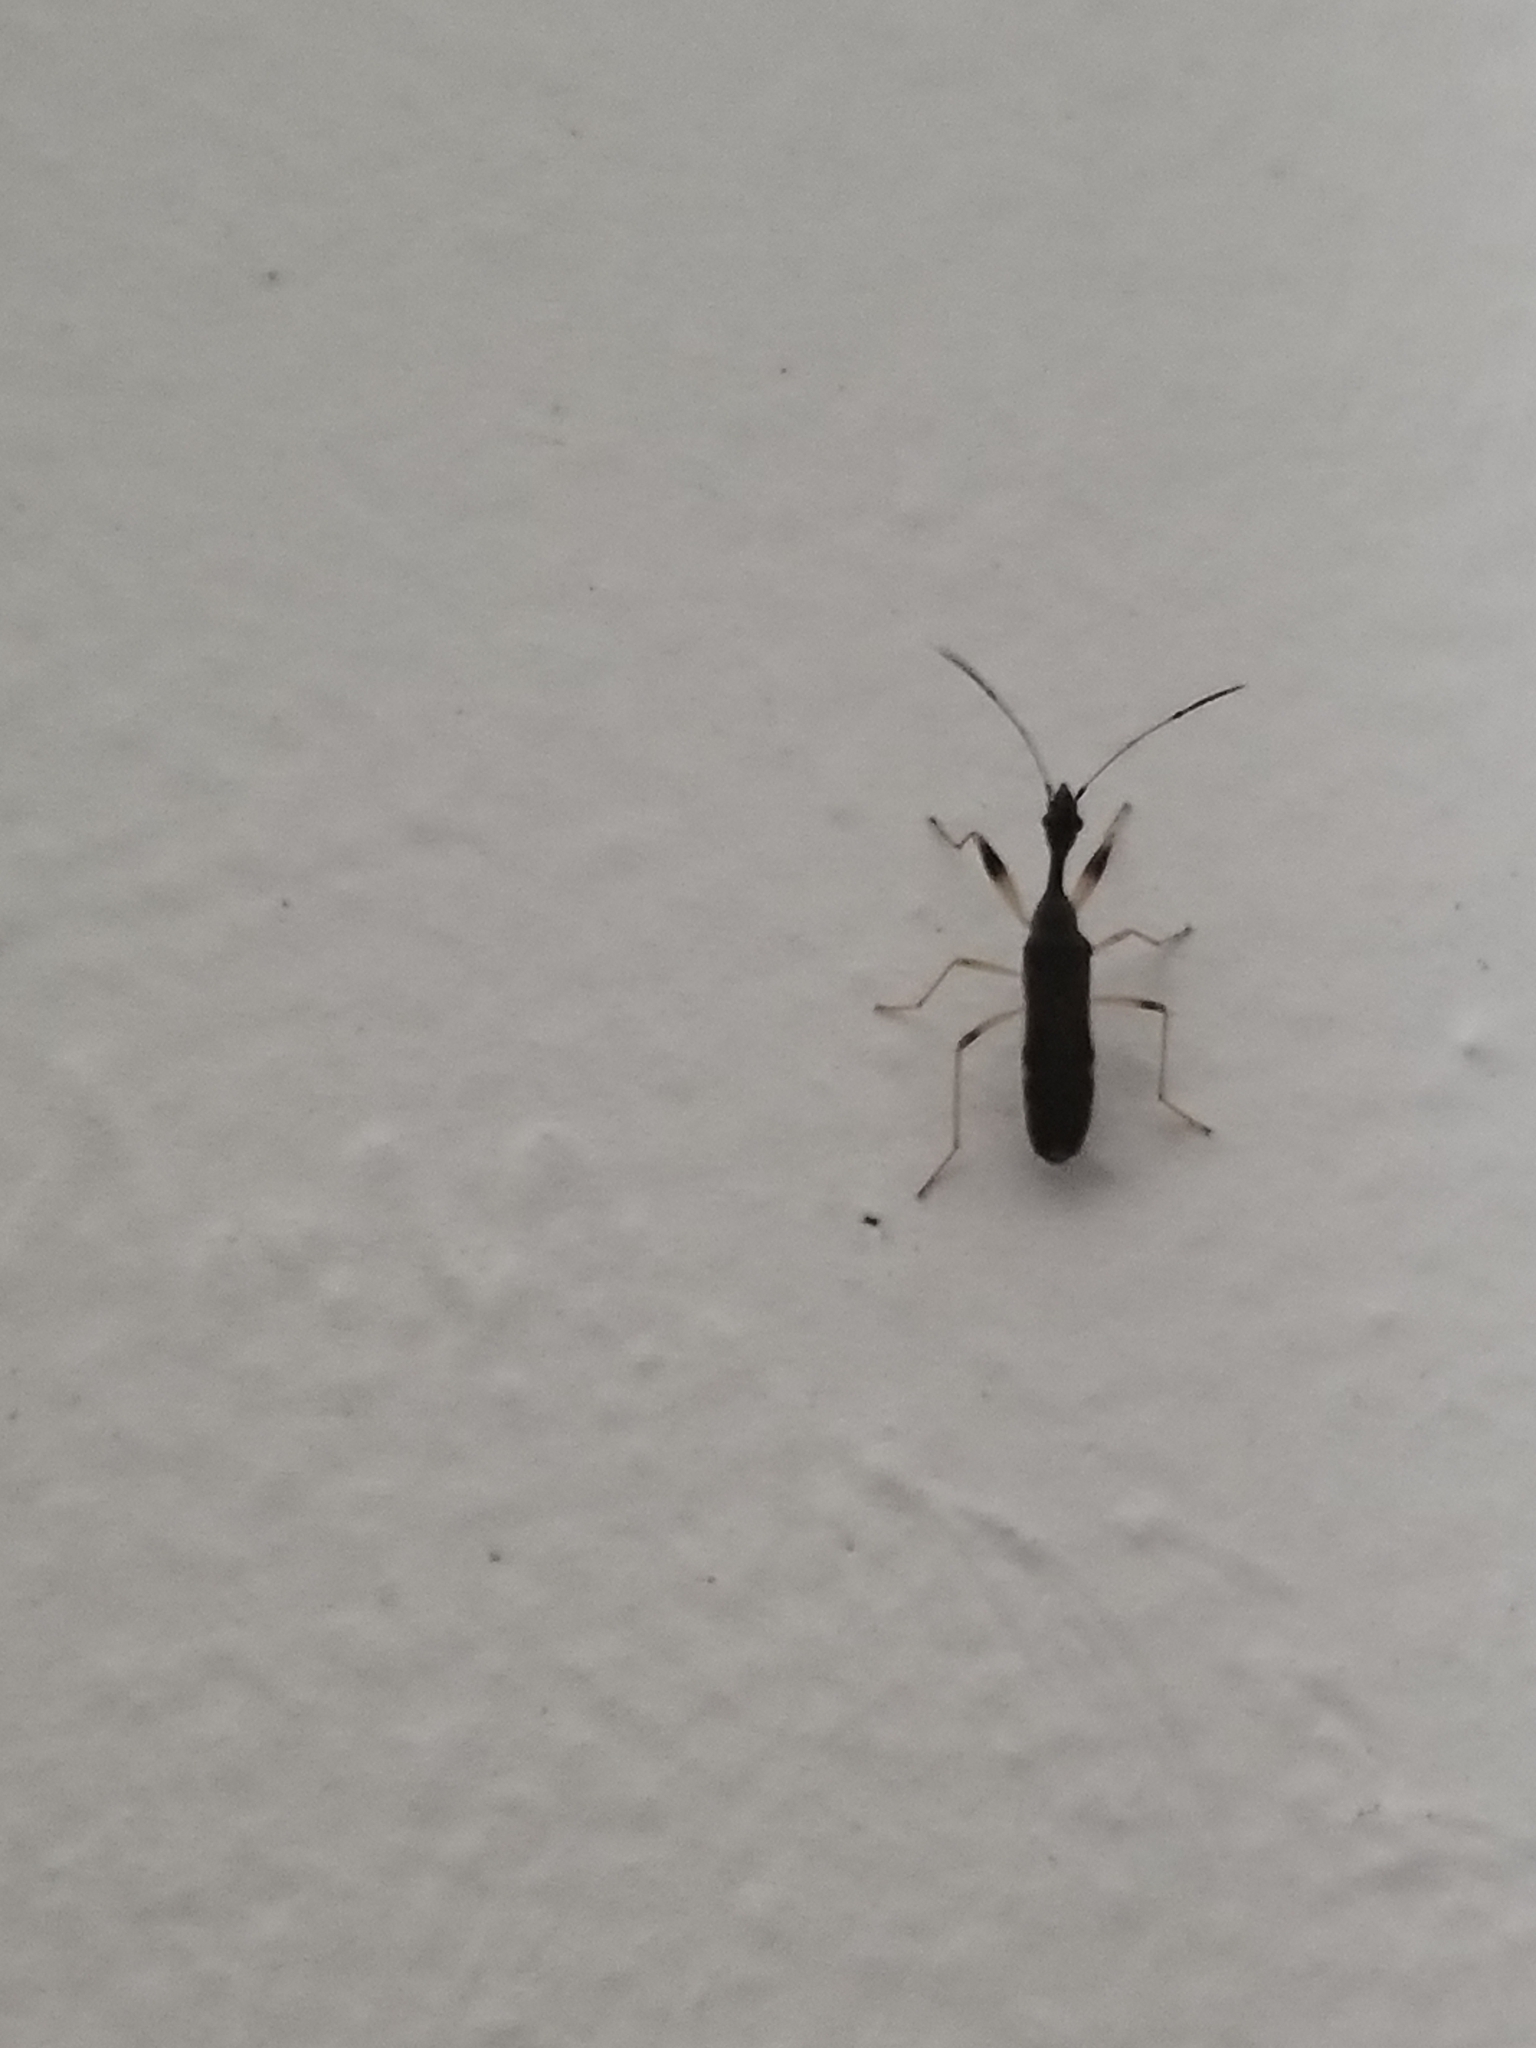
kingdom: Animalia
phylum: Arthropoda
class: Insecta
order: Hemiptera
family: Rhyparochromidae
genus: Myodocha
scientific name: Myodocha serripes
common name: Long-necked seed bug
